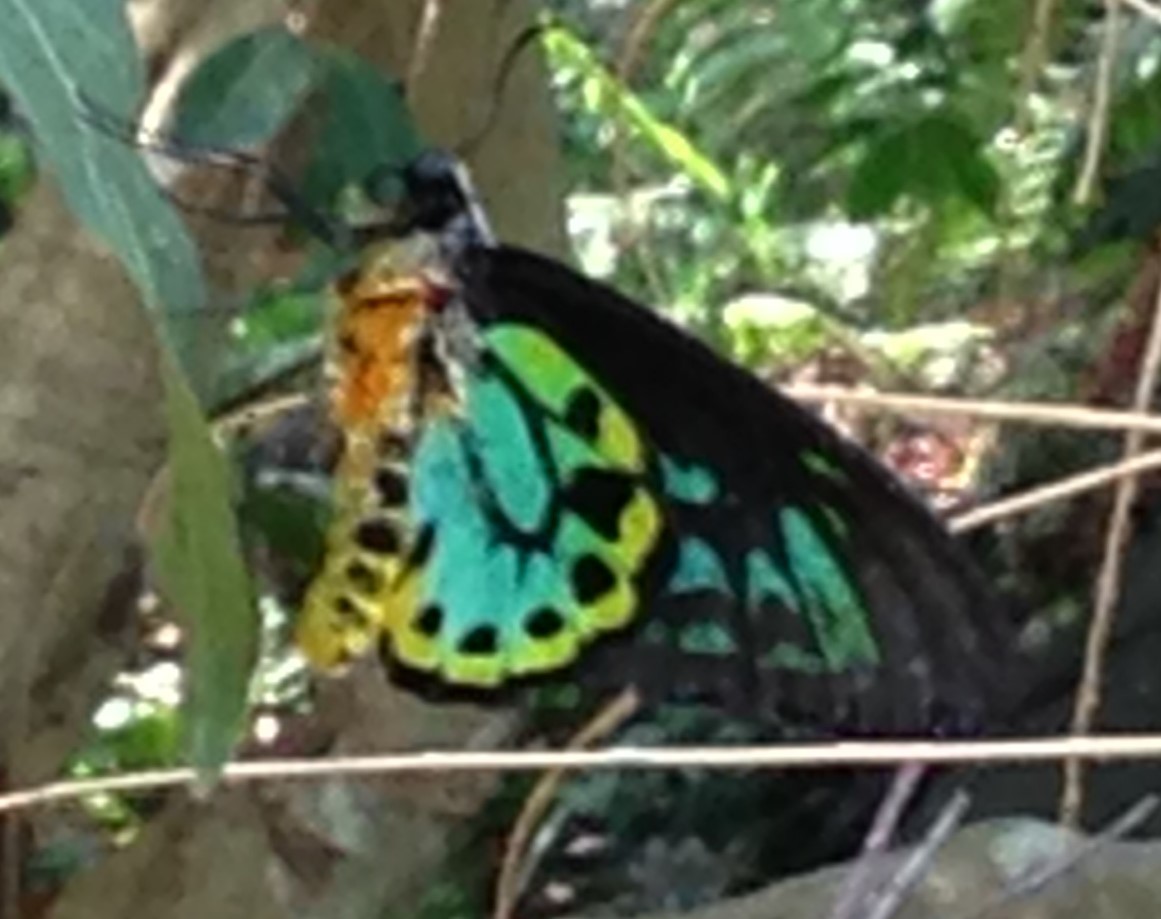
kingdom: Animalia
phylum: Arthropoda
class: Insecta
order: Lepidoptera
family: Papilionidae
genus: Ornithoptera
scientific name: Ornithoptera richmondia
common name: Richmond birdwing
